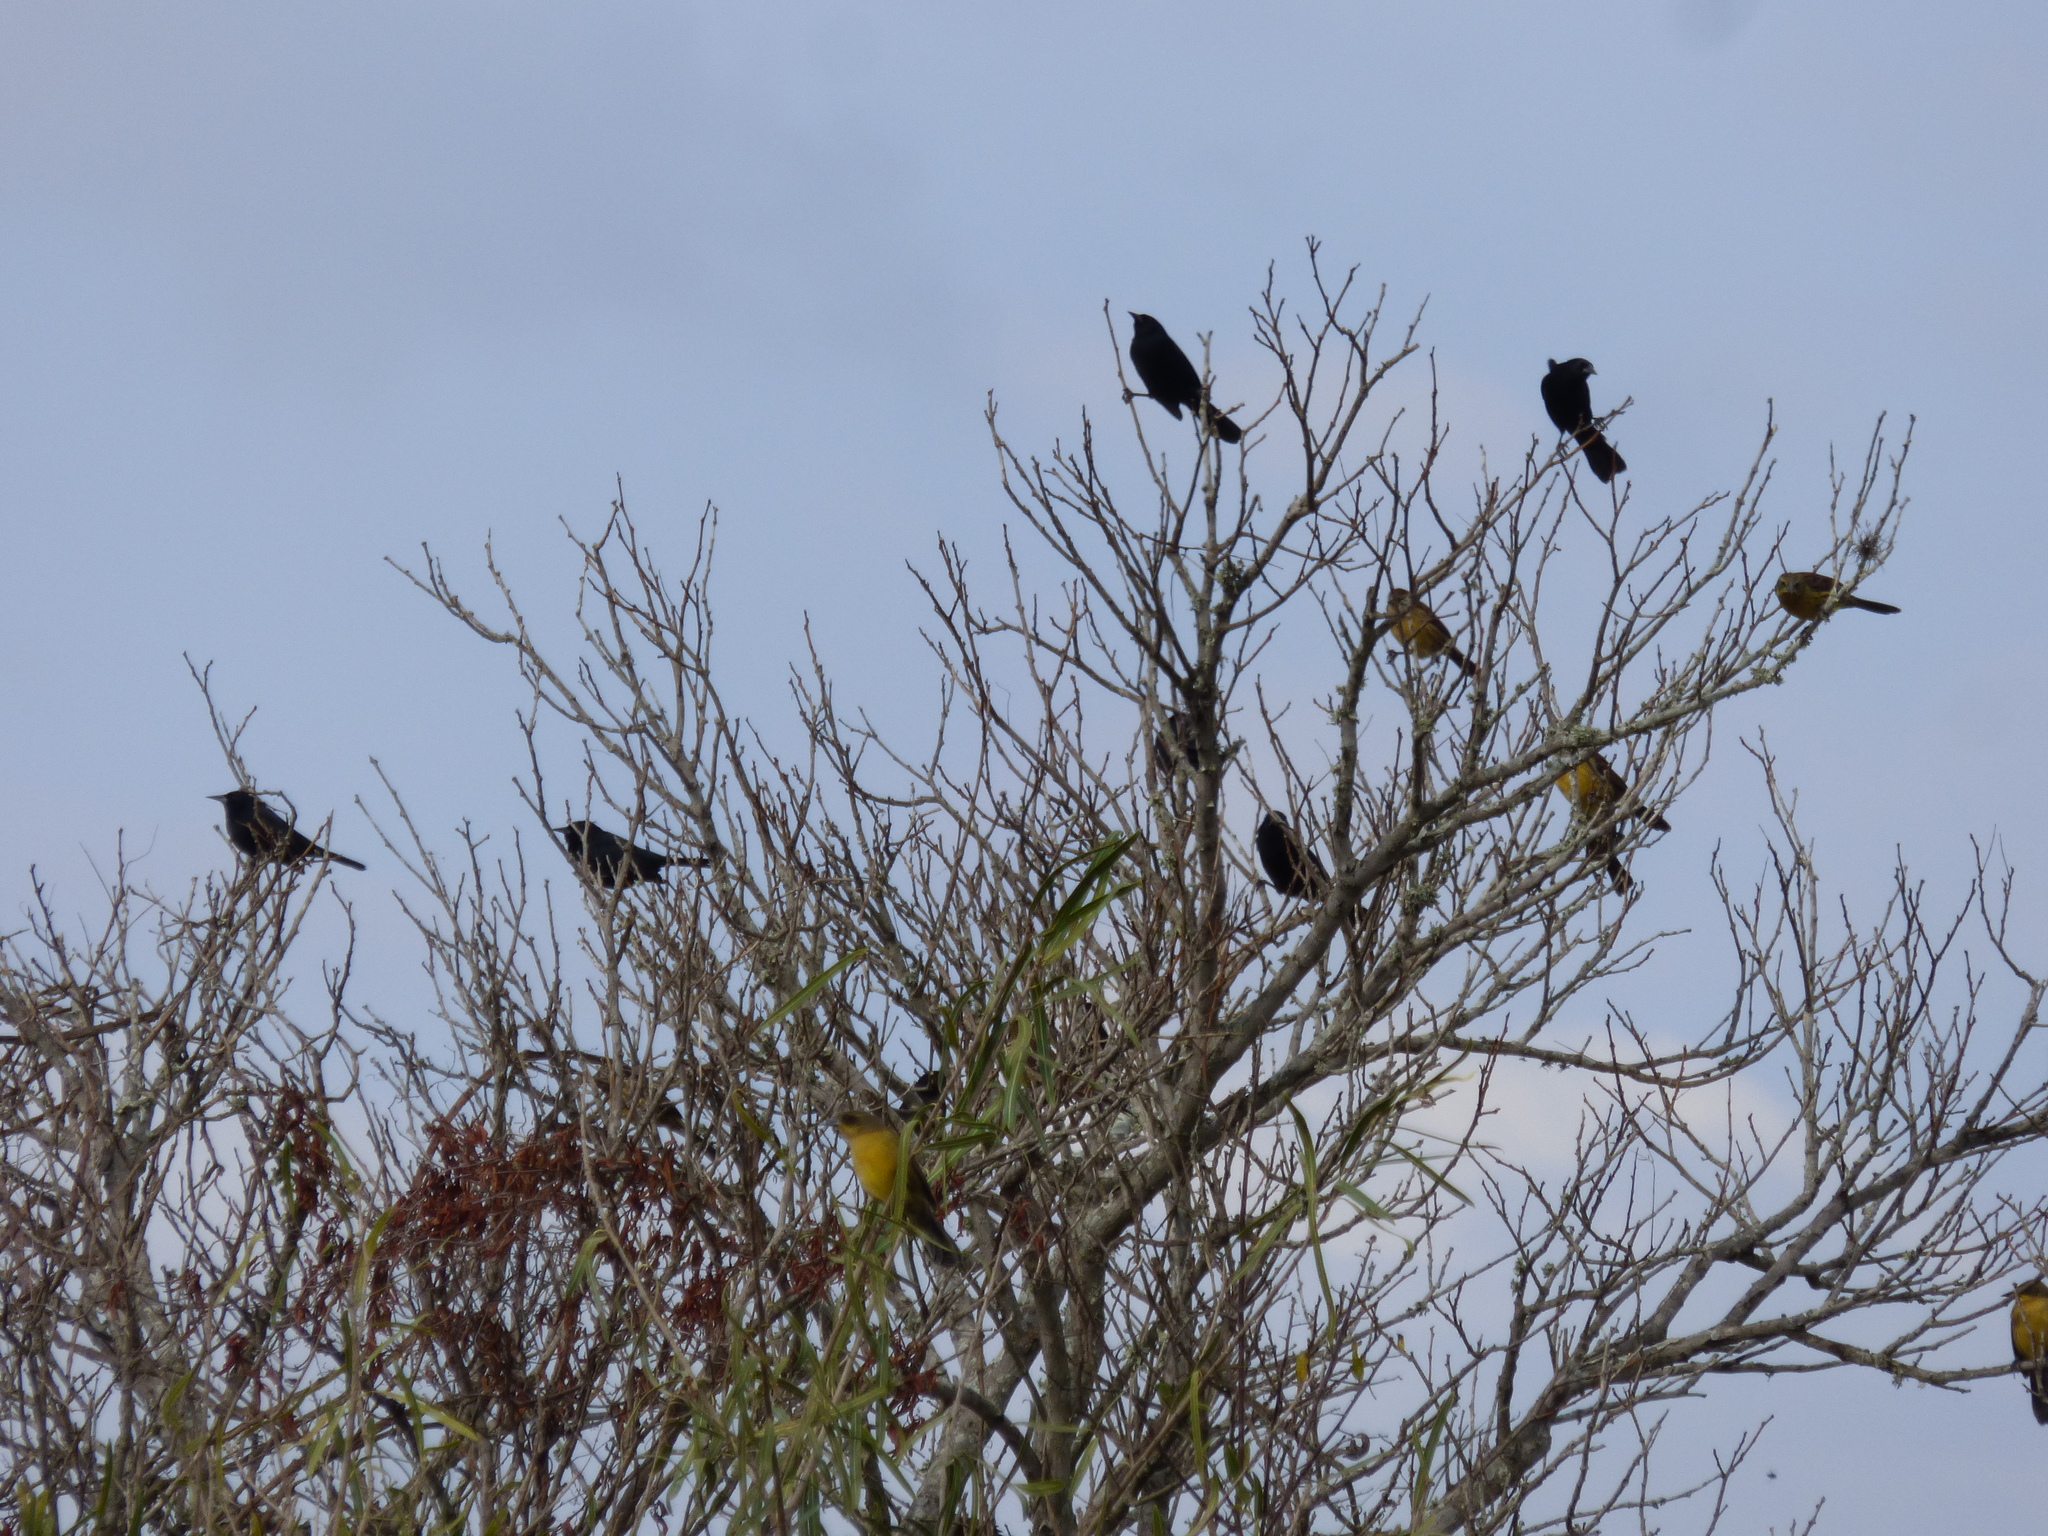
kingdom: Animalia
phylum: Chordata
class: Aves
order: Passeriformes
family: Icteridae
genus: Agelasticus
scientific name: Agelasticus cyanopus
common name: Unicolored blackbird
